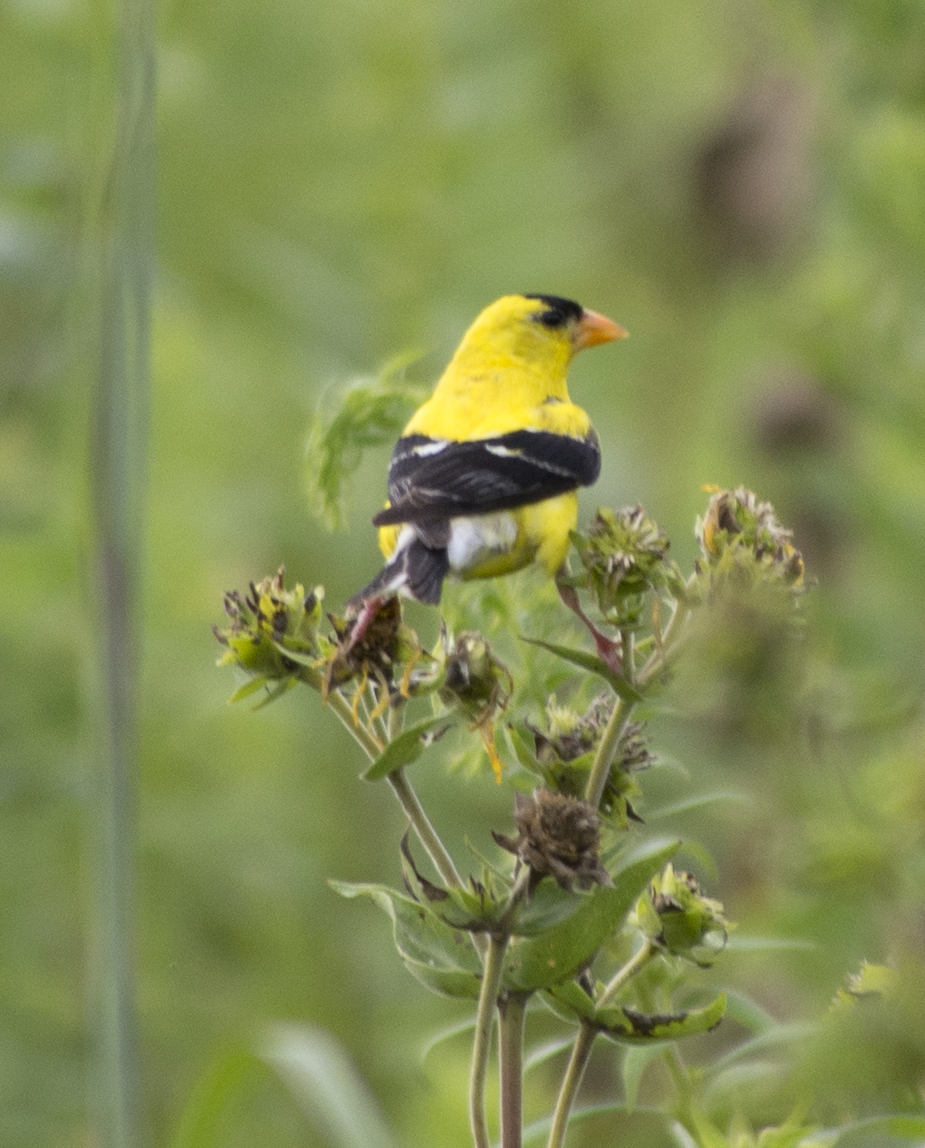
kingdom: Animalia
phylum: Chordata
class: Aves
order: Passeriformes
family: Fringillidae
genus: Spinus
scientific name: Spinus tristis
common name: American goldfinch
